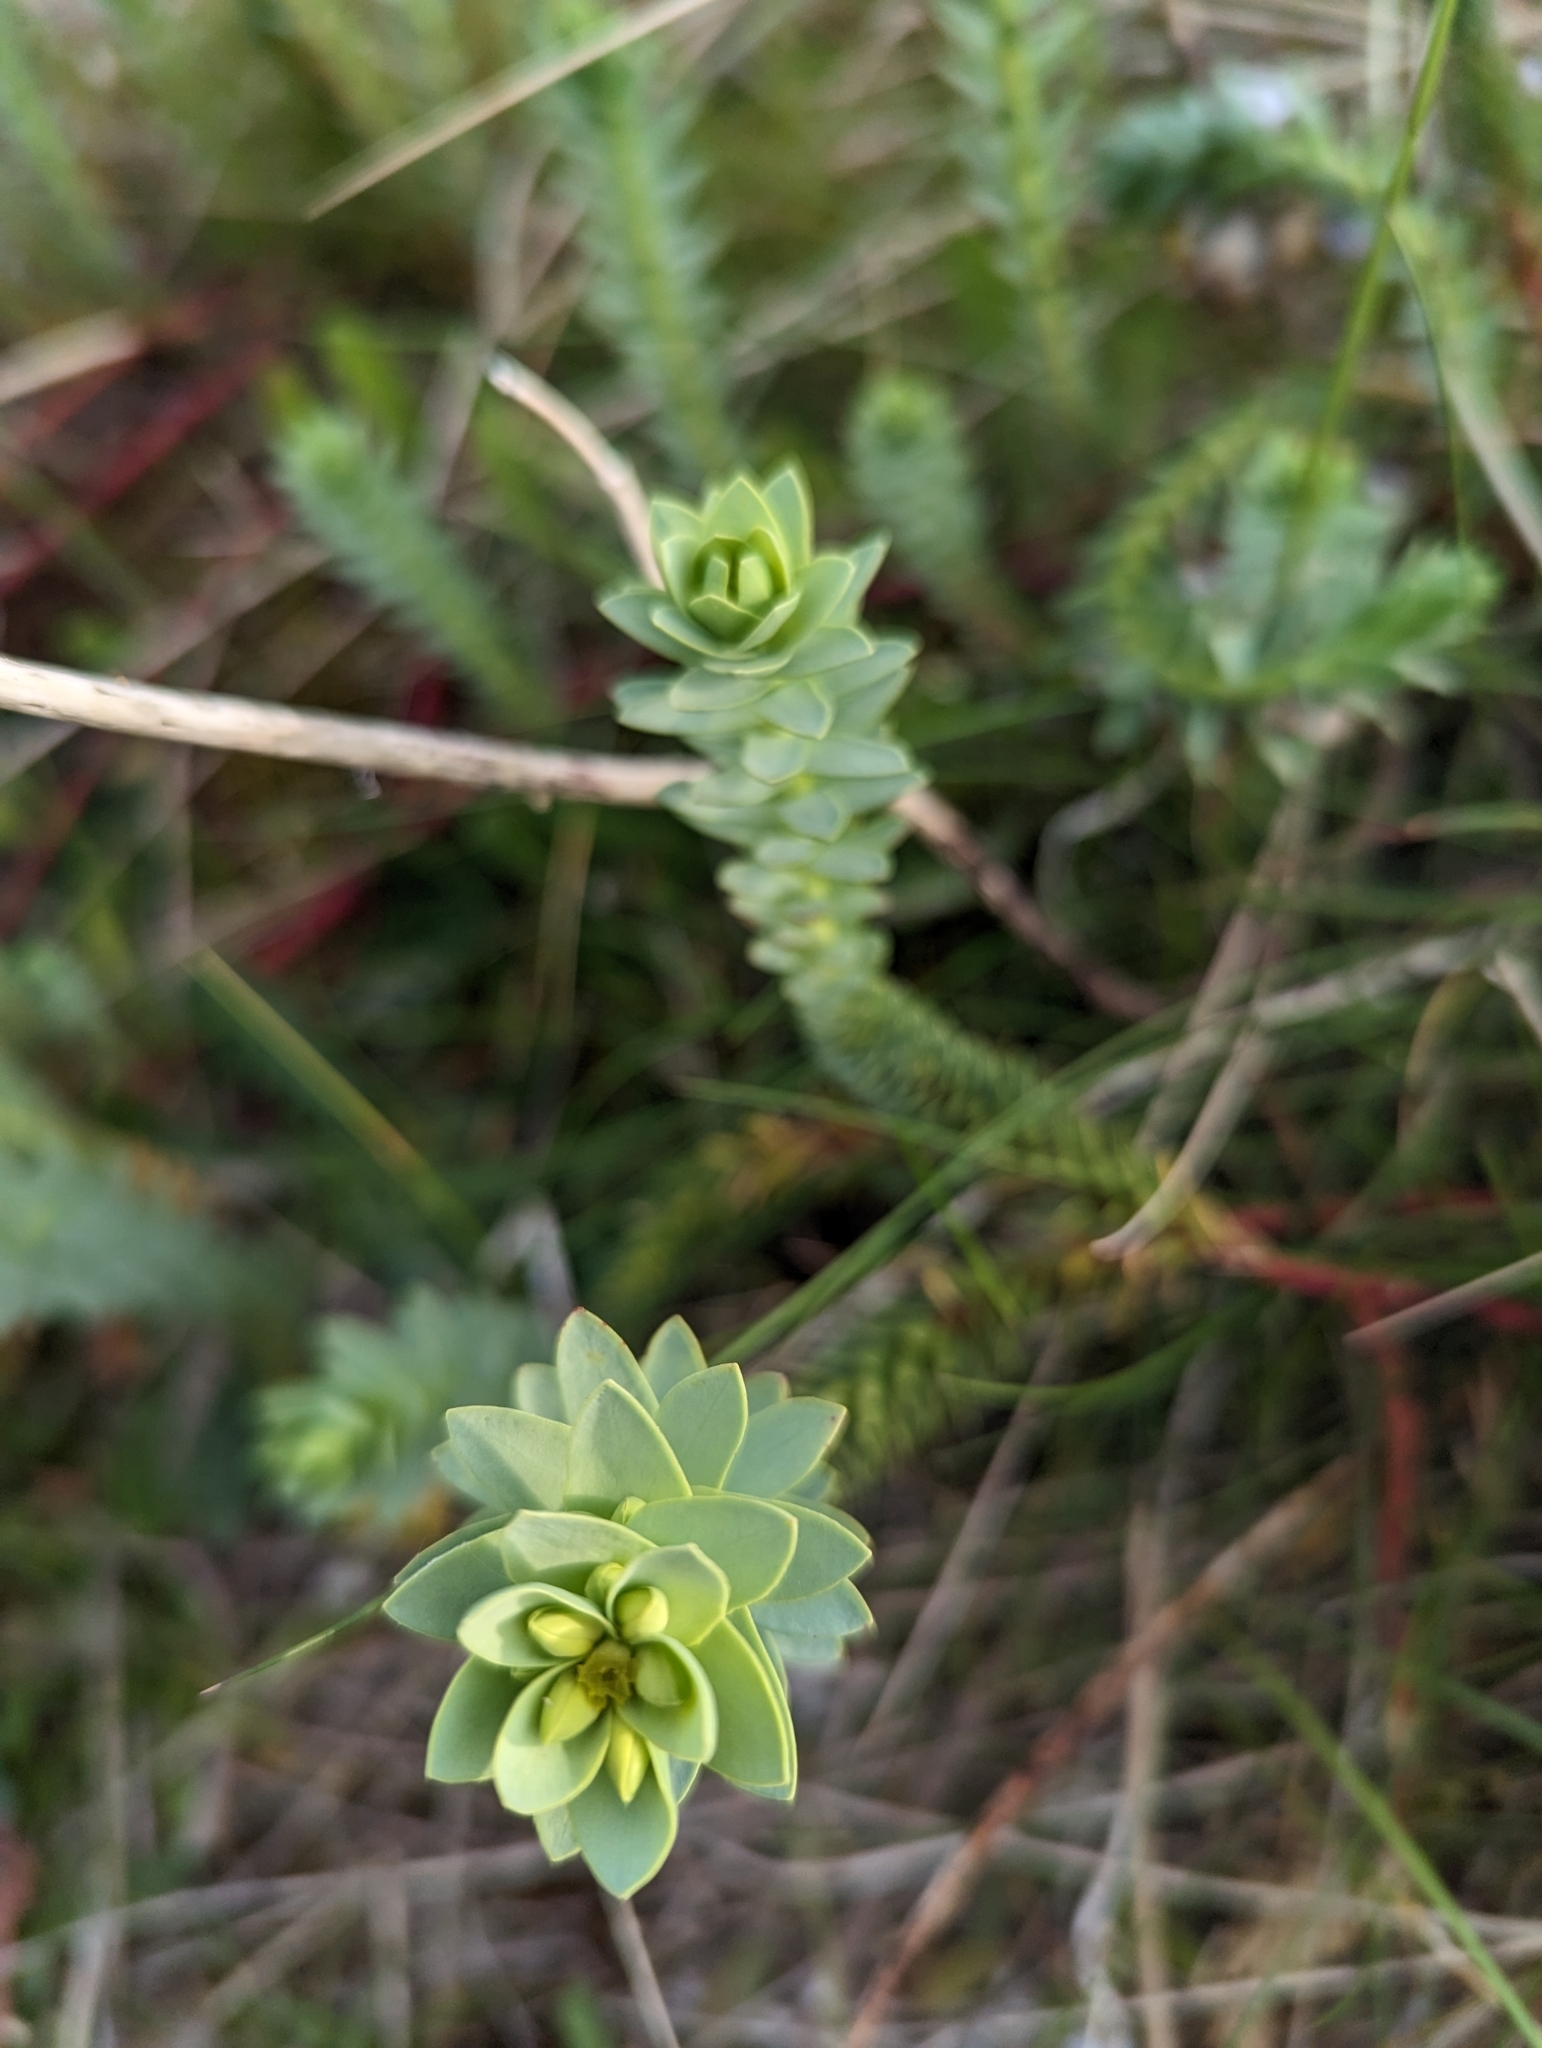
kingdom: Plantae
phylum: Tracheophyta
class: Magnoliopsida
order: Malpighiales
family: Euphorbiaceae
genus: Euphorbia
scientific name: Euphorbia paralias
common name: Sea spurge
